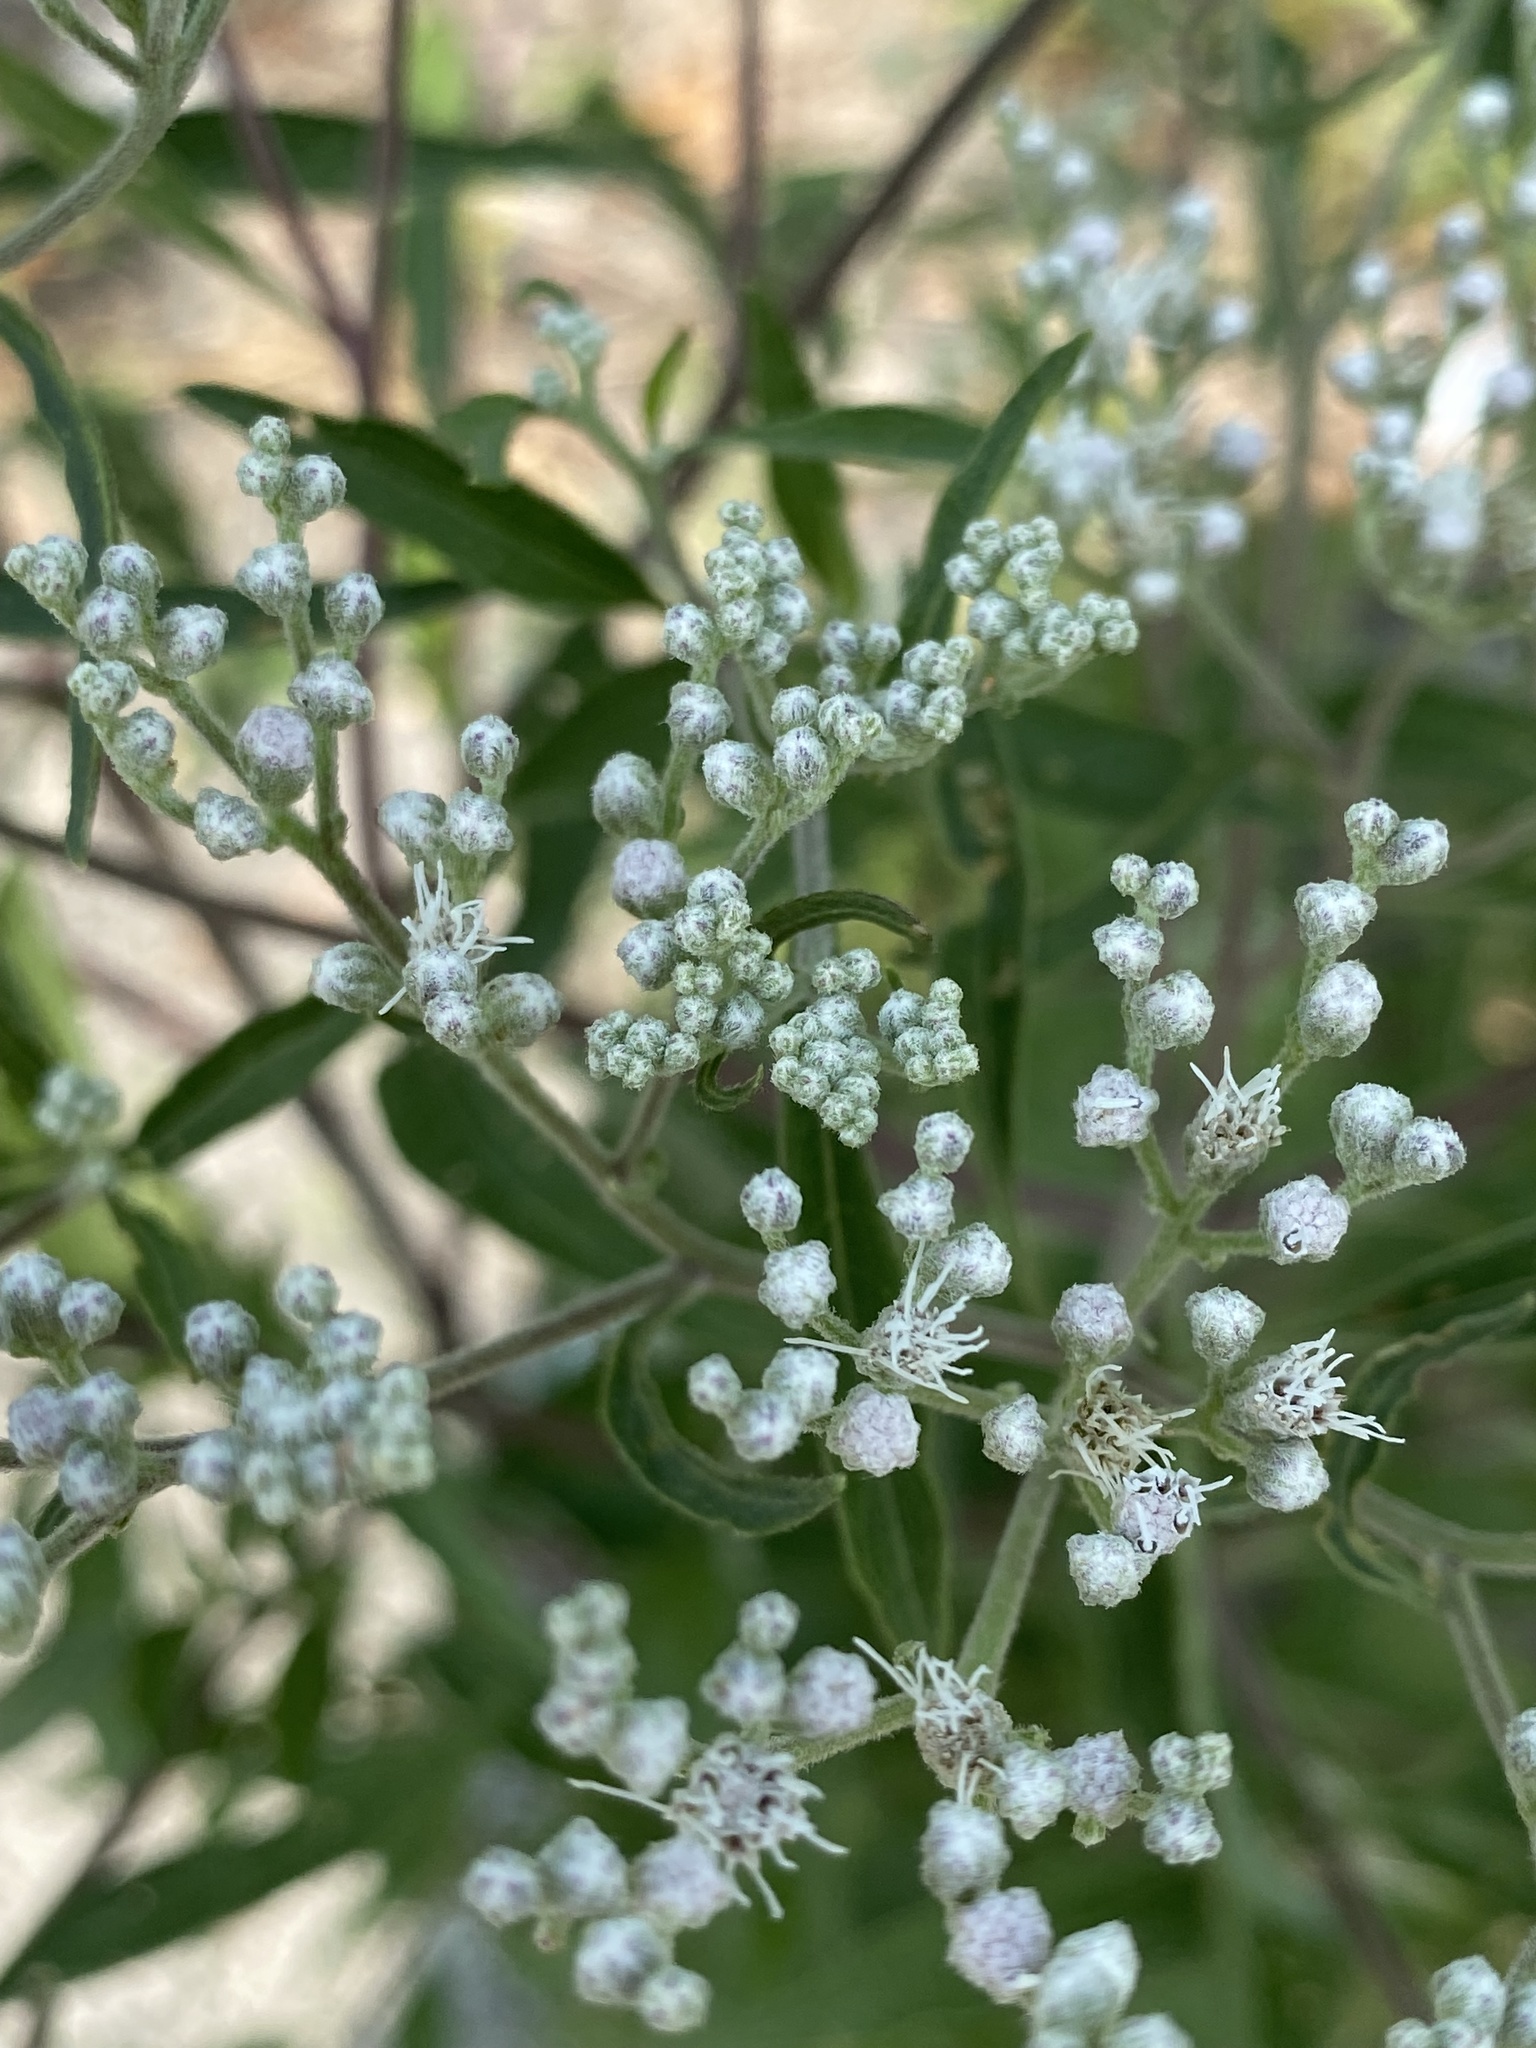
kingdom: Plantae
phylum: Tracheophyta
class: Magnoliopsida
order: Asterales
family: Asteraceae
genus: Eupatorium
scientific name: Eupatorium serotinum
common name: Late boneset
